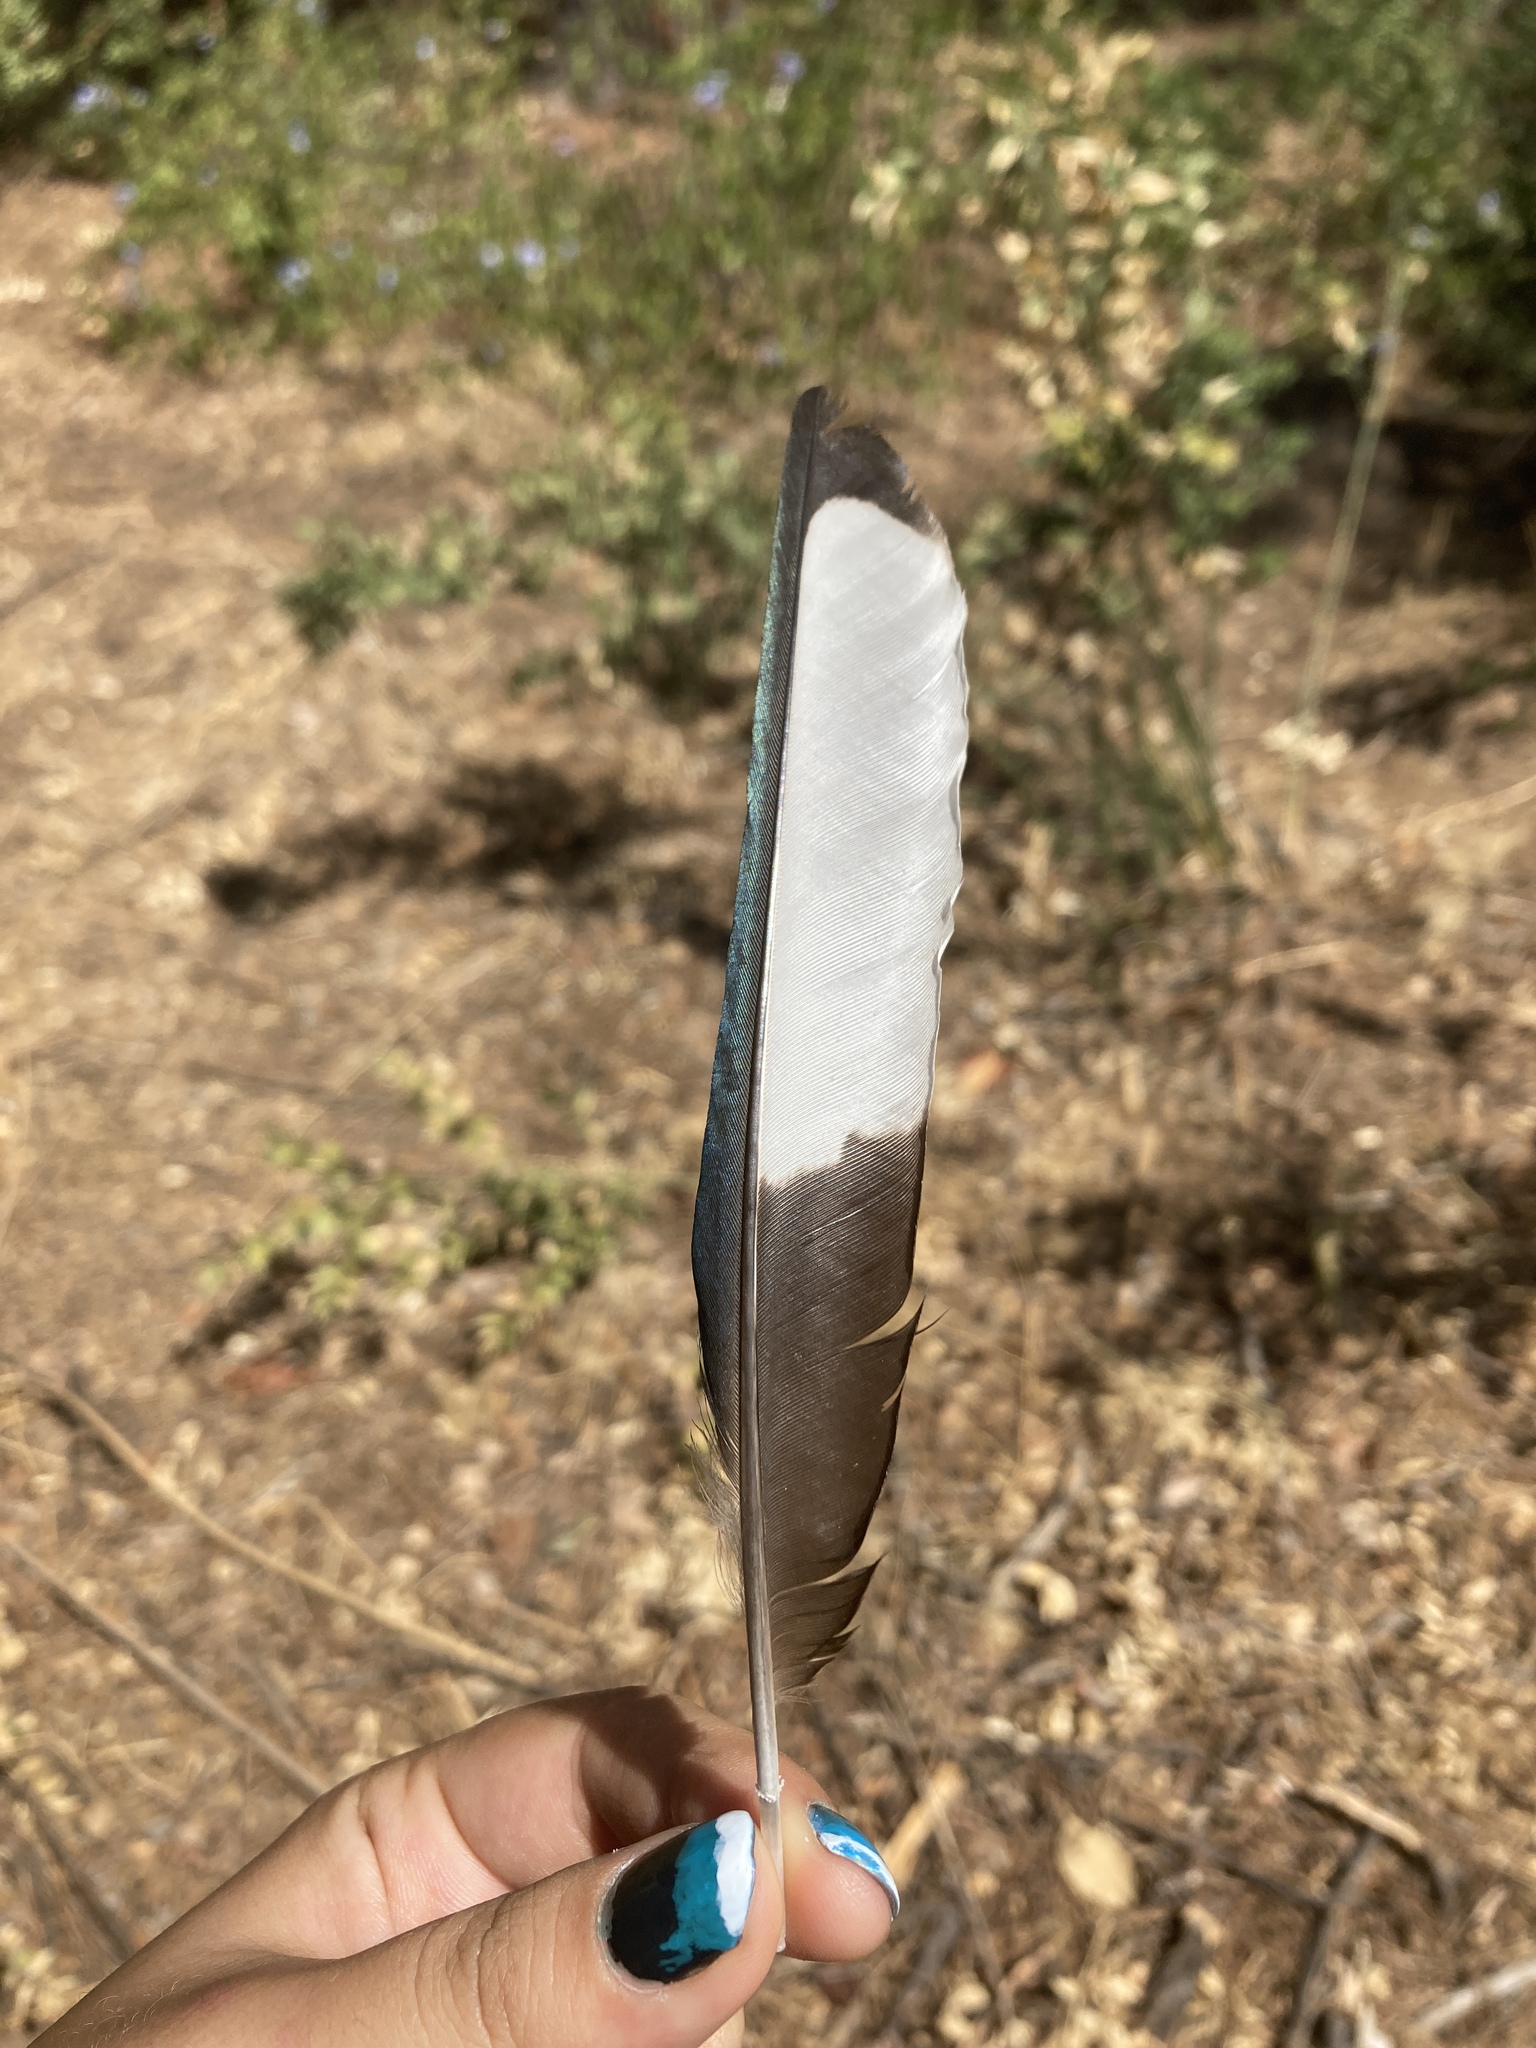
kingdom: Animalia
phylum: Chordata
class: Aves
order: Passeriformes
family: Corvidae
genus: Pica
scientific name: Pica pica
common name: Eurasian magpie
